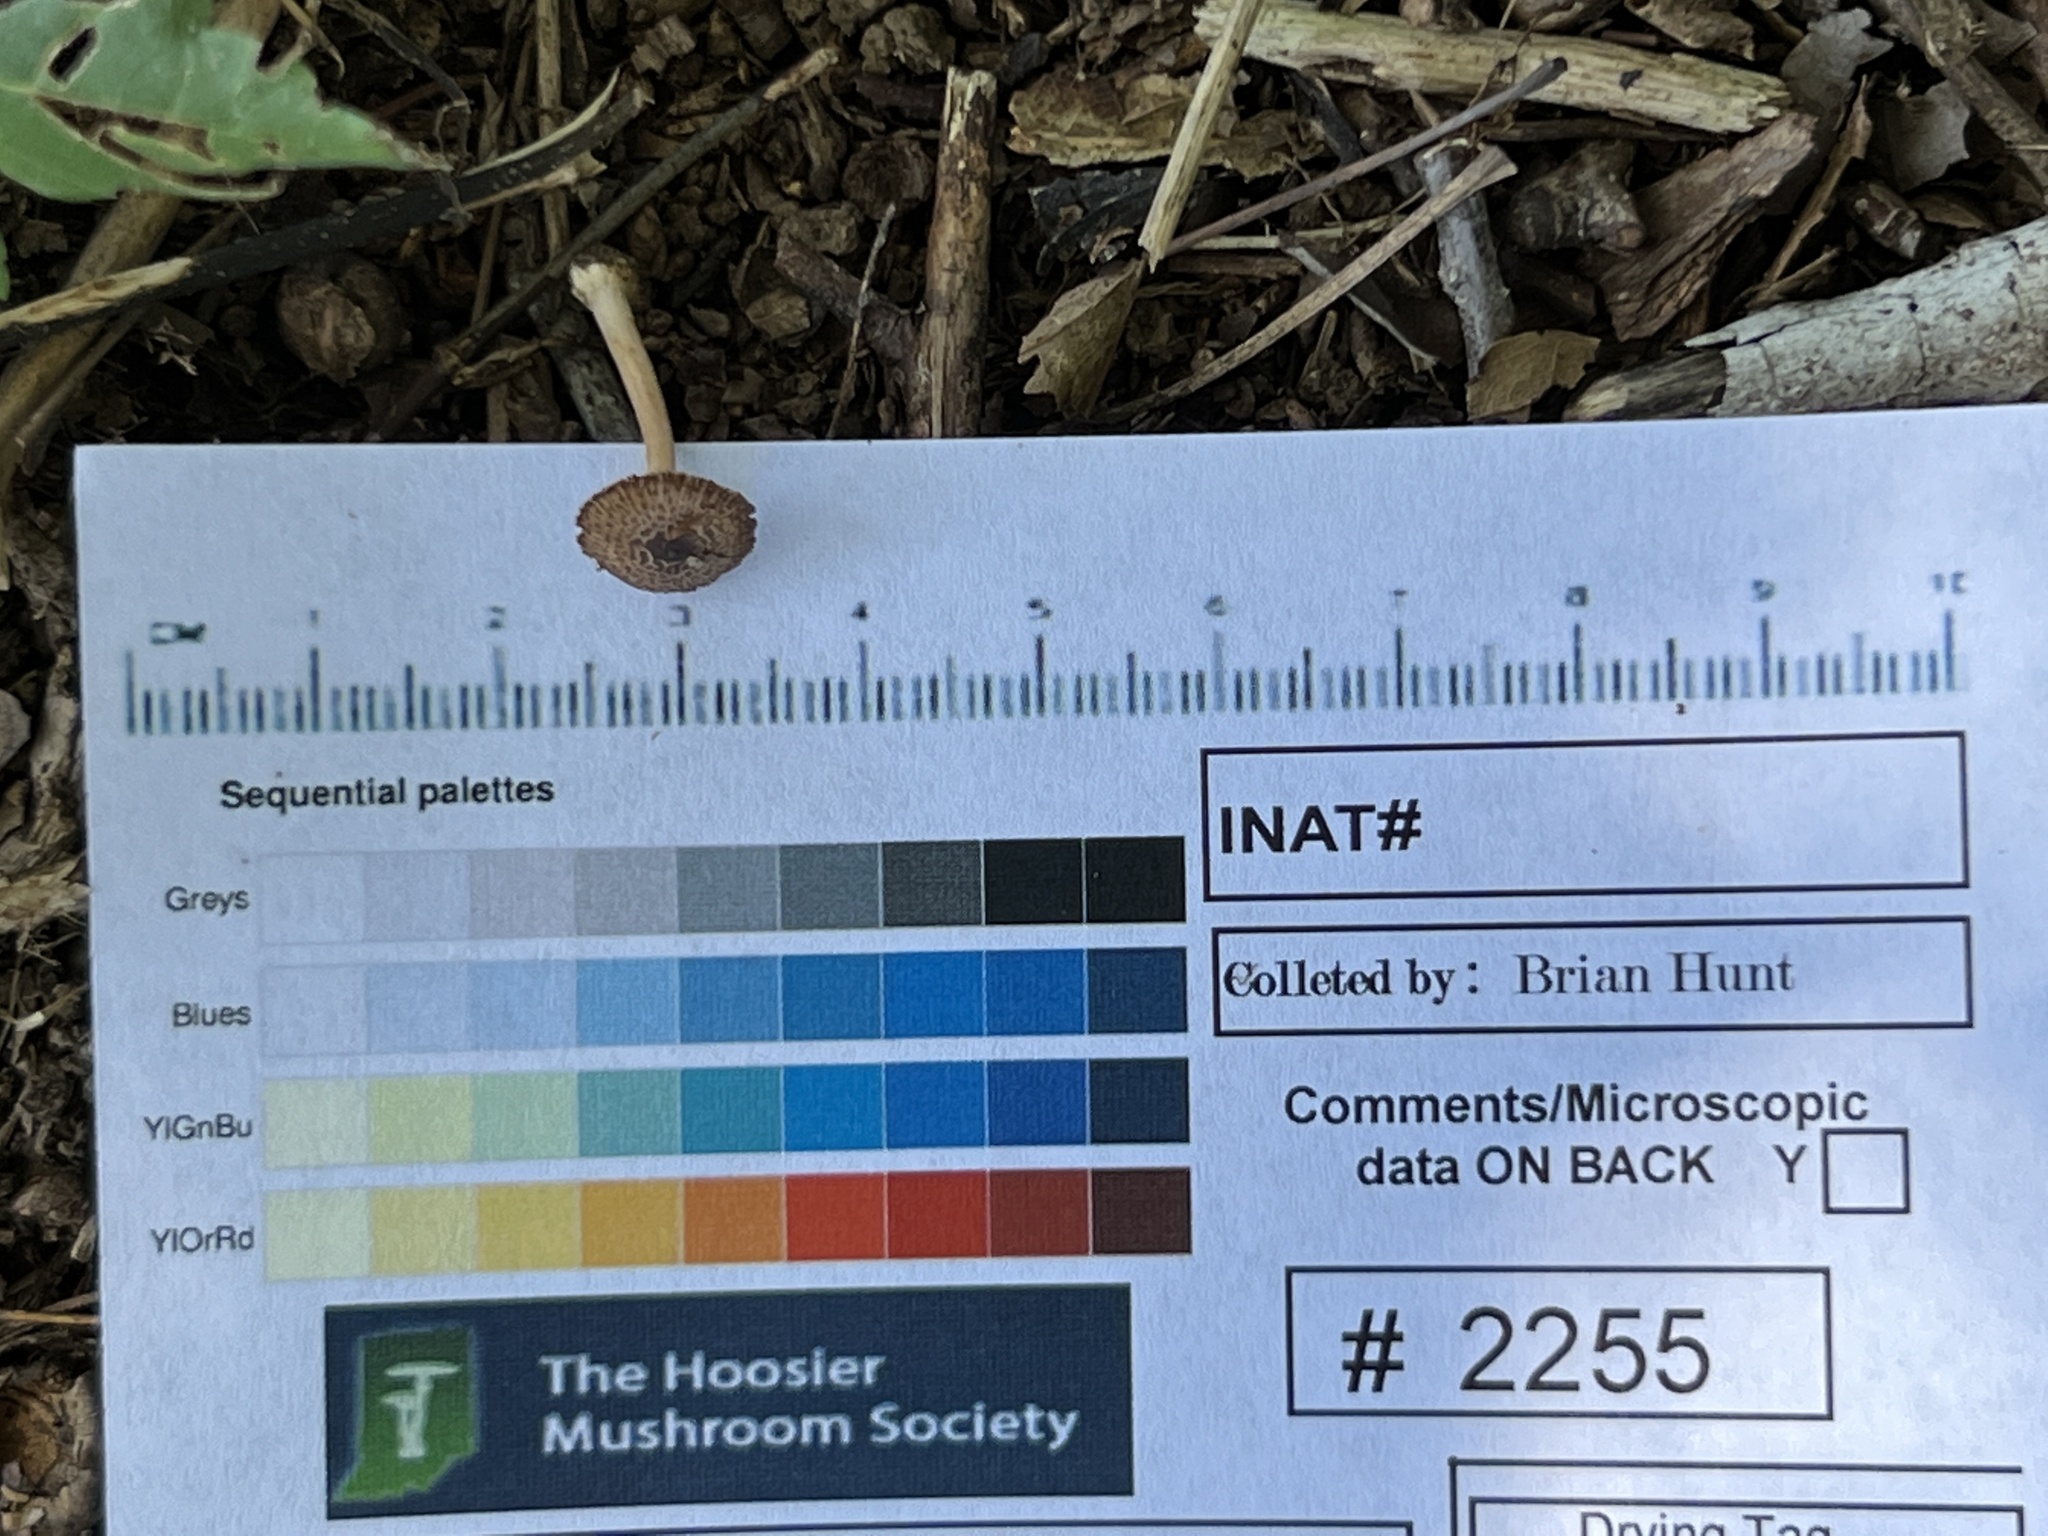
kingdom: Fungi
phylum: Basidiomycota
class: Agaricomycetes
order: Agaricales
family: Inocybaceae
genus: Inocybe
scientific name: Inocybe cicatricata
